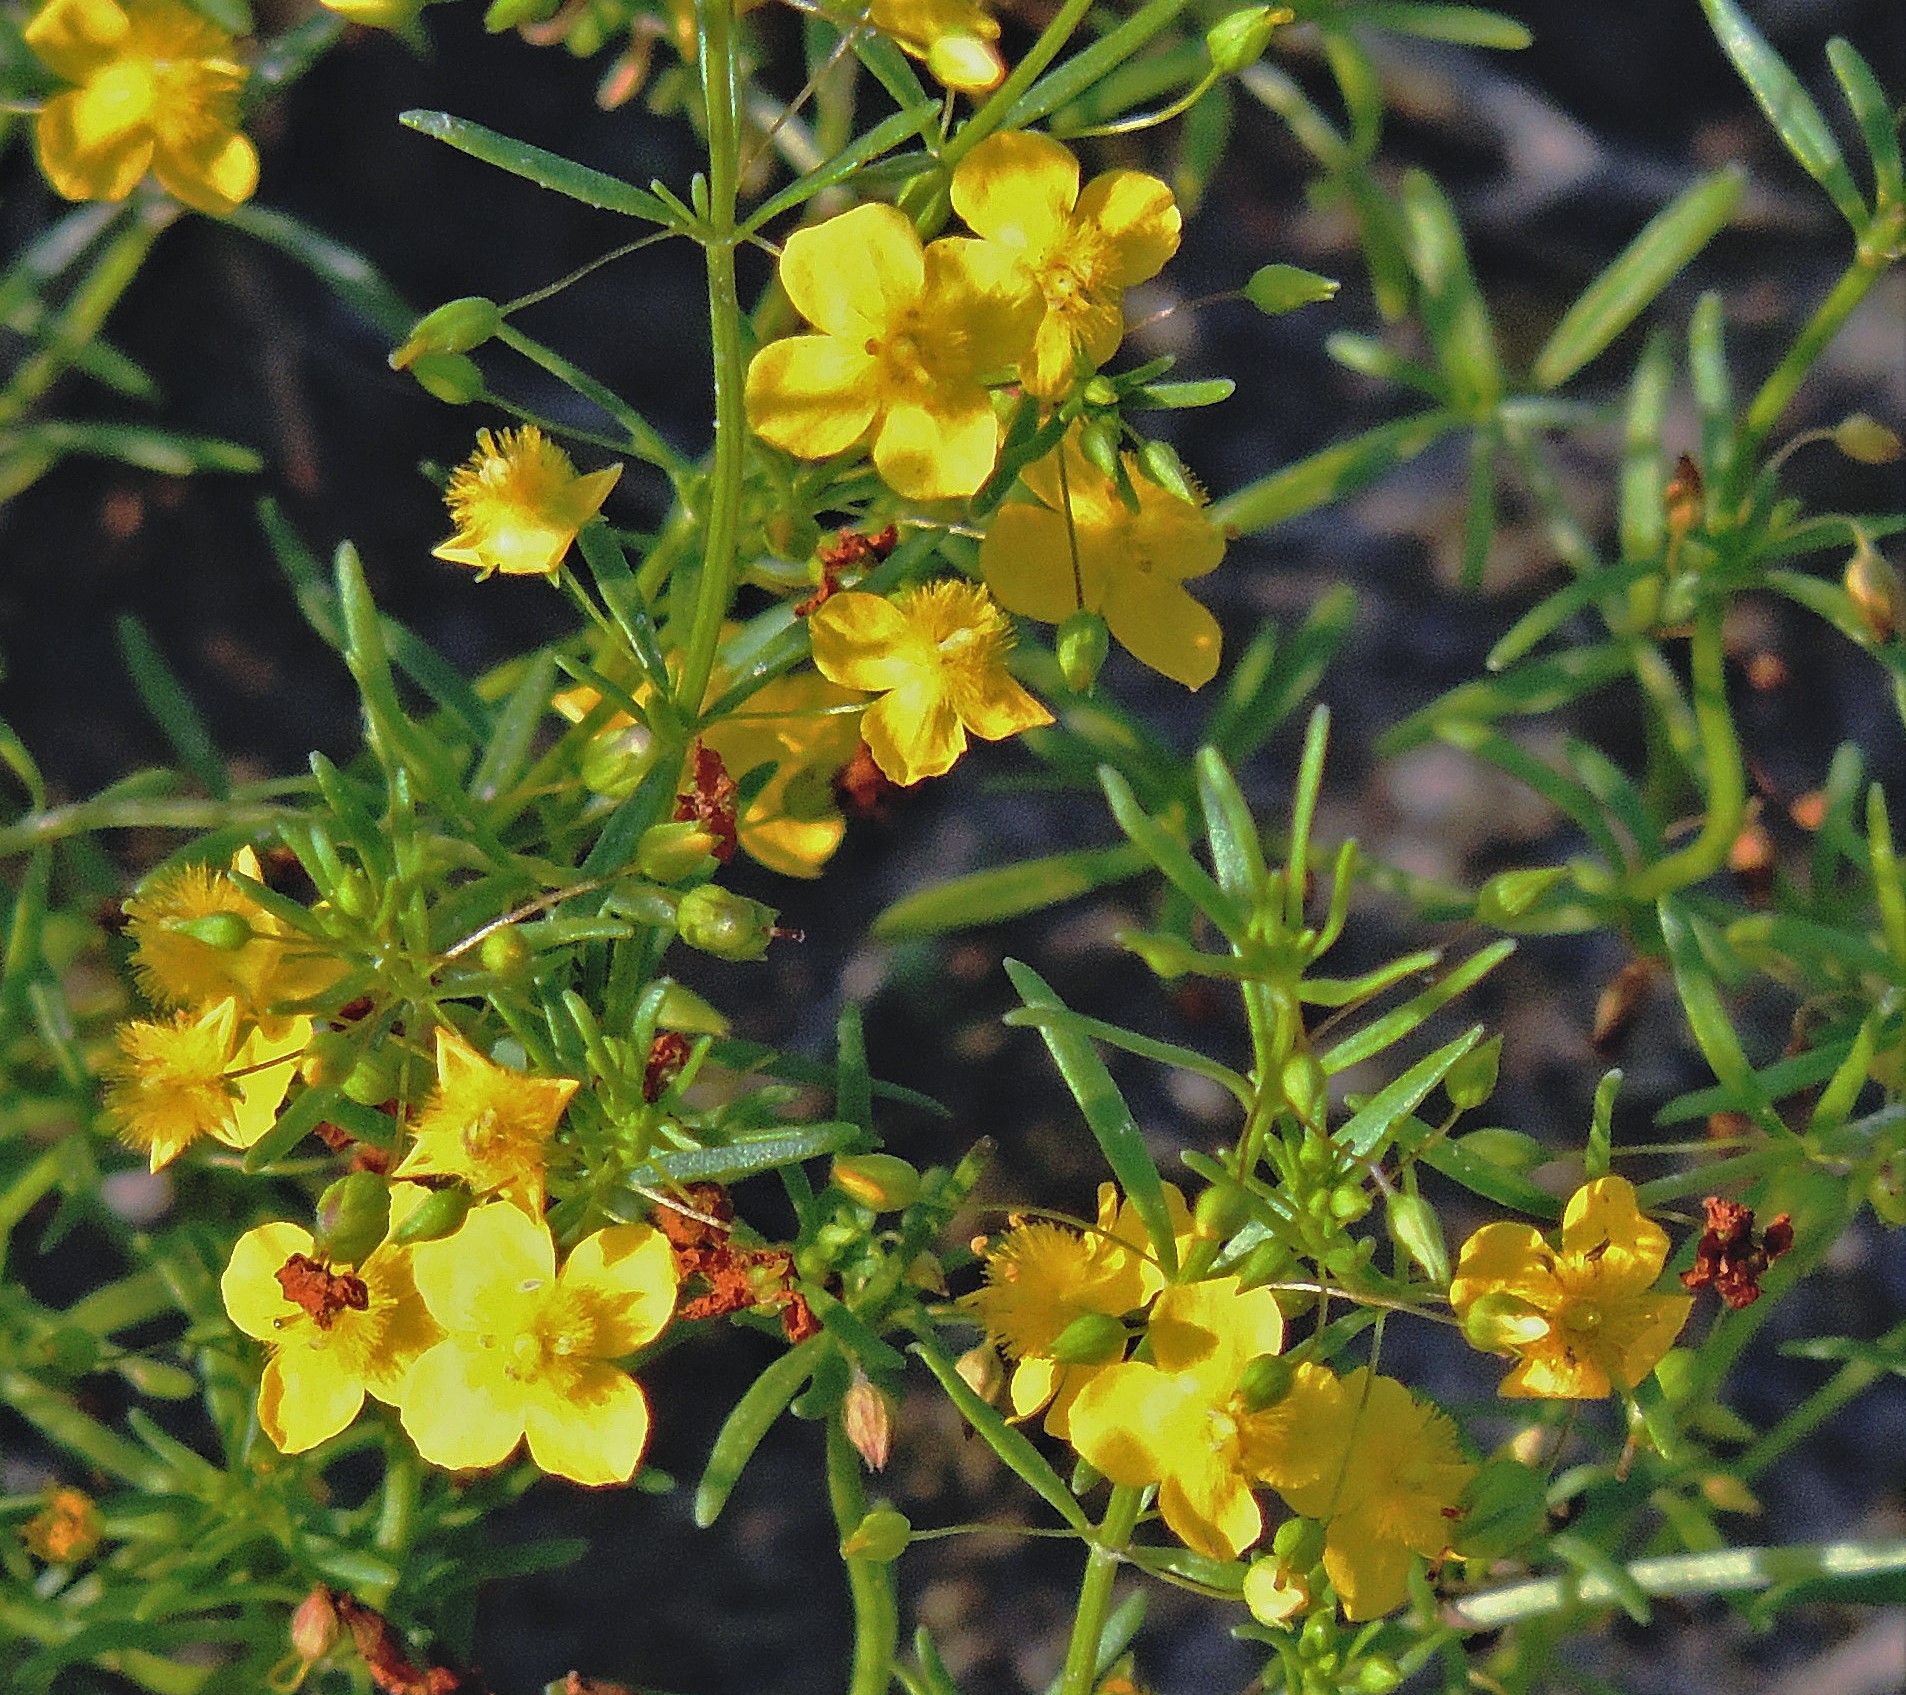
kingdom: Plantae
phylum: Tracheophyta
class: Magnoliopsida
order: Lamiales
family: Plantaginaceae
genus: Scoparia
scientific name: Scoparia montevidensis
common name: Broomwort
